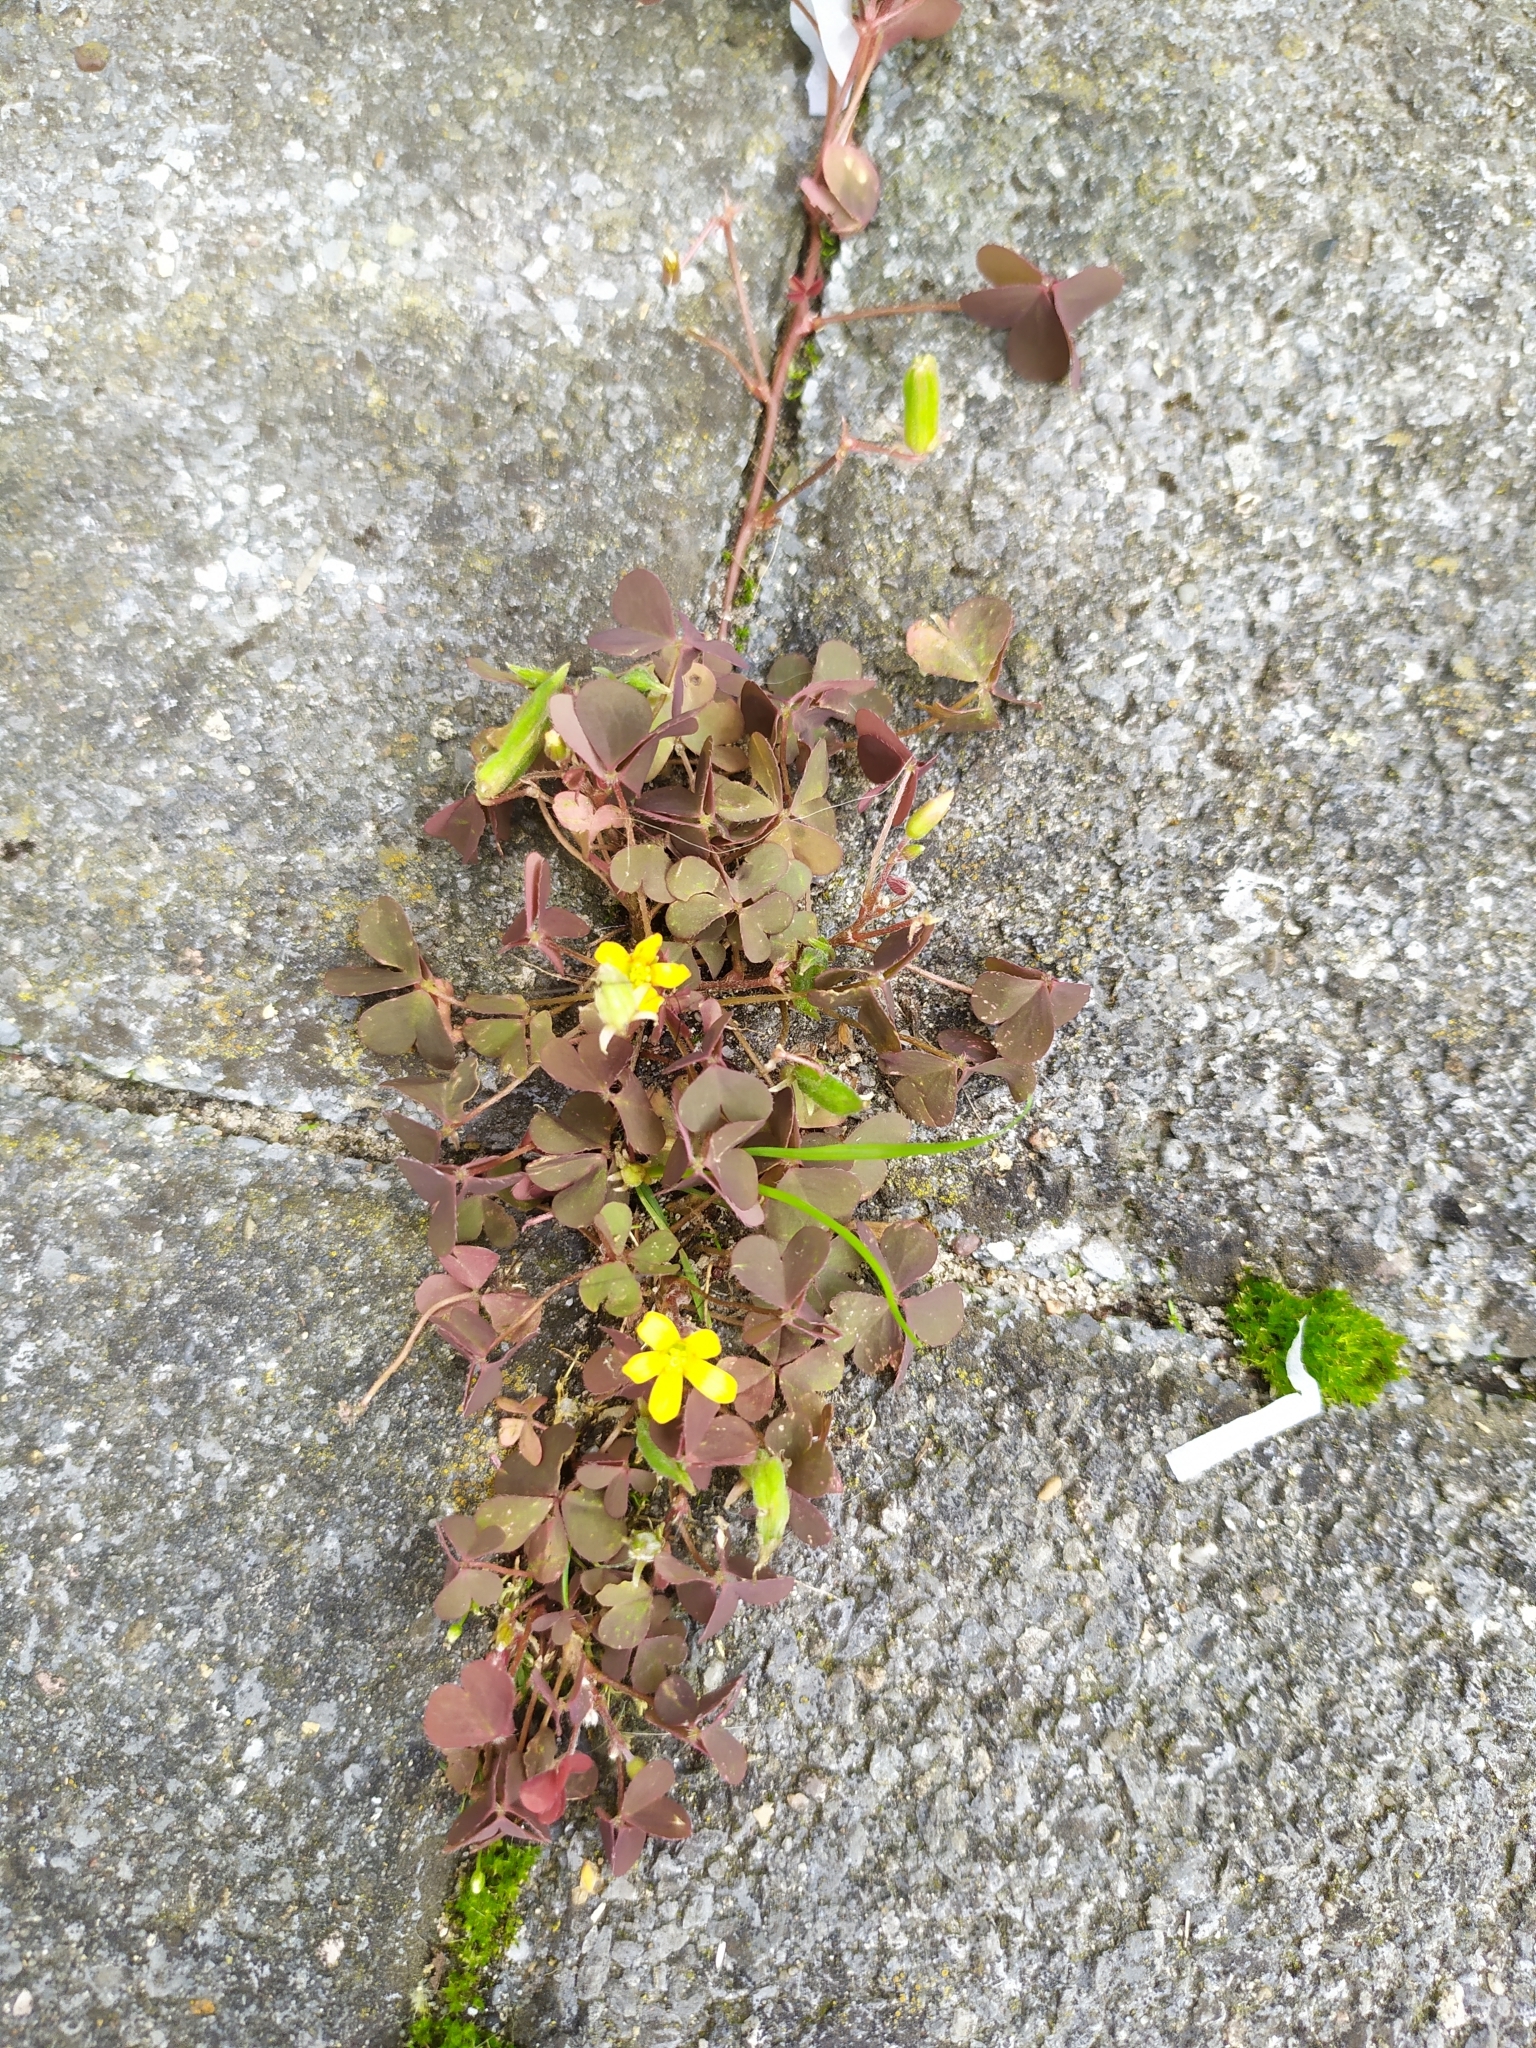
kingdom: Plantae
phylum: Tracheophyta
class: Magnoliopsida
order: Oxalidales
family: Oxalidaceae
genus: Oxalis
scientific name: Oxalis corniculata
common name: Procumbent yellow-sorrel
